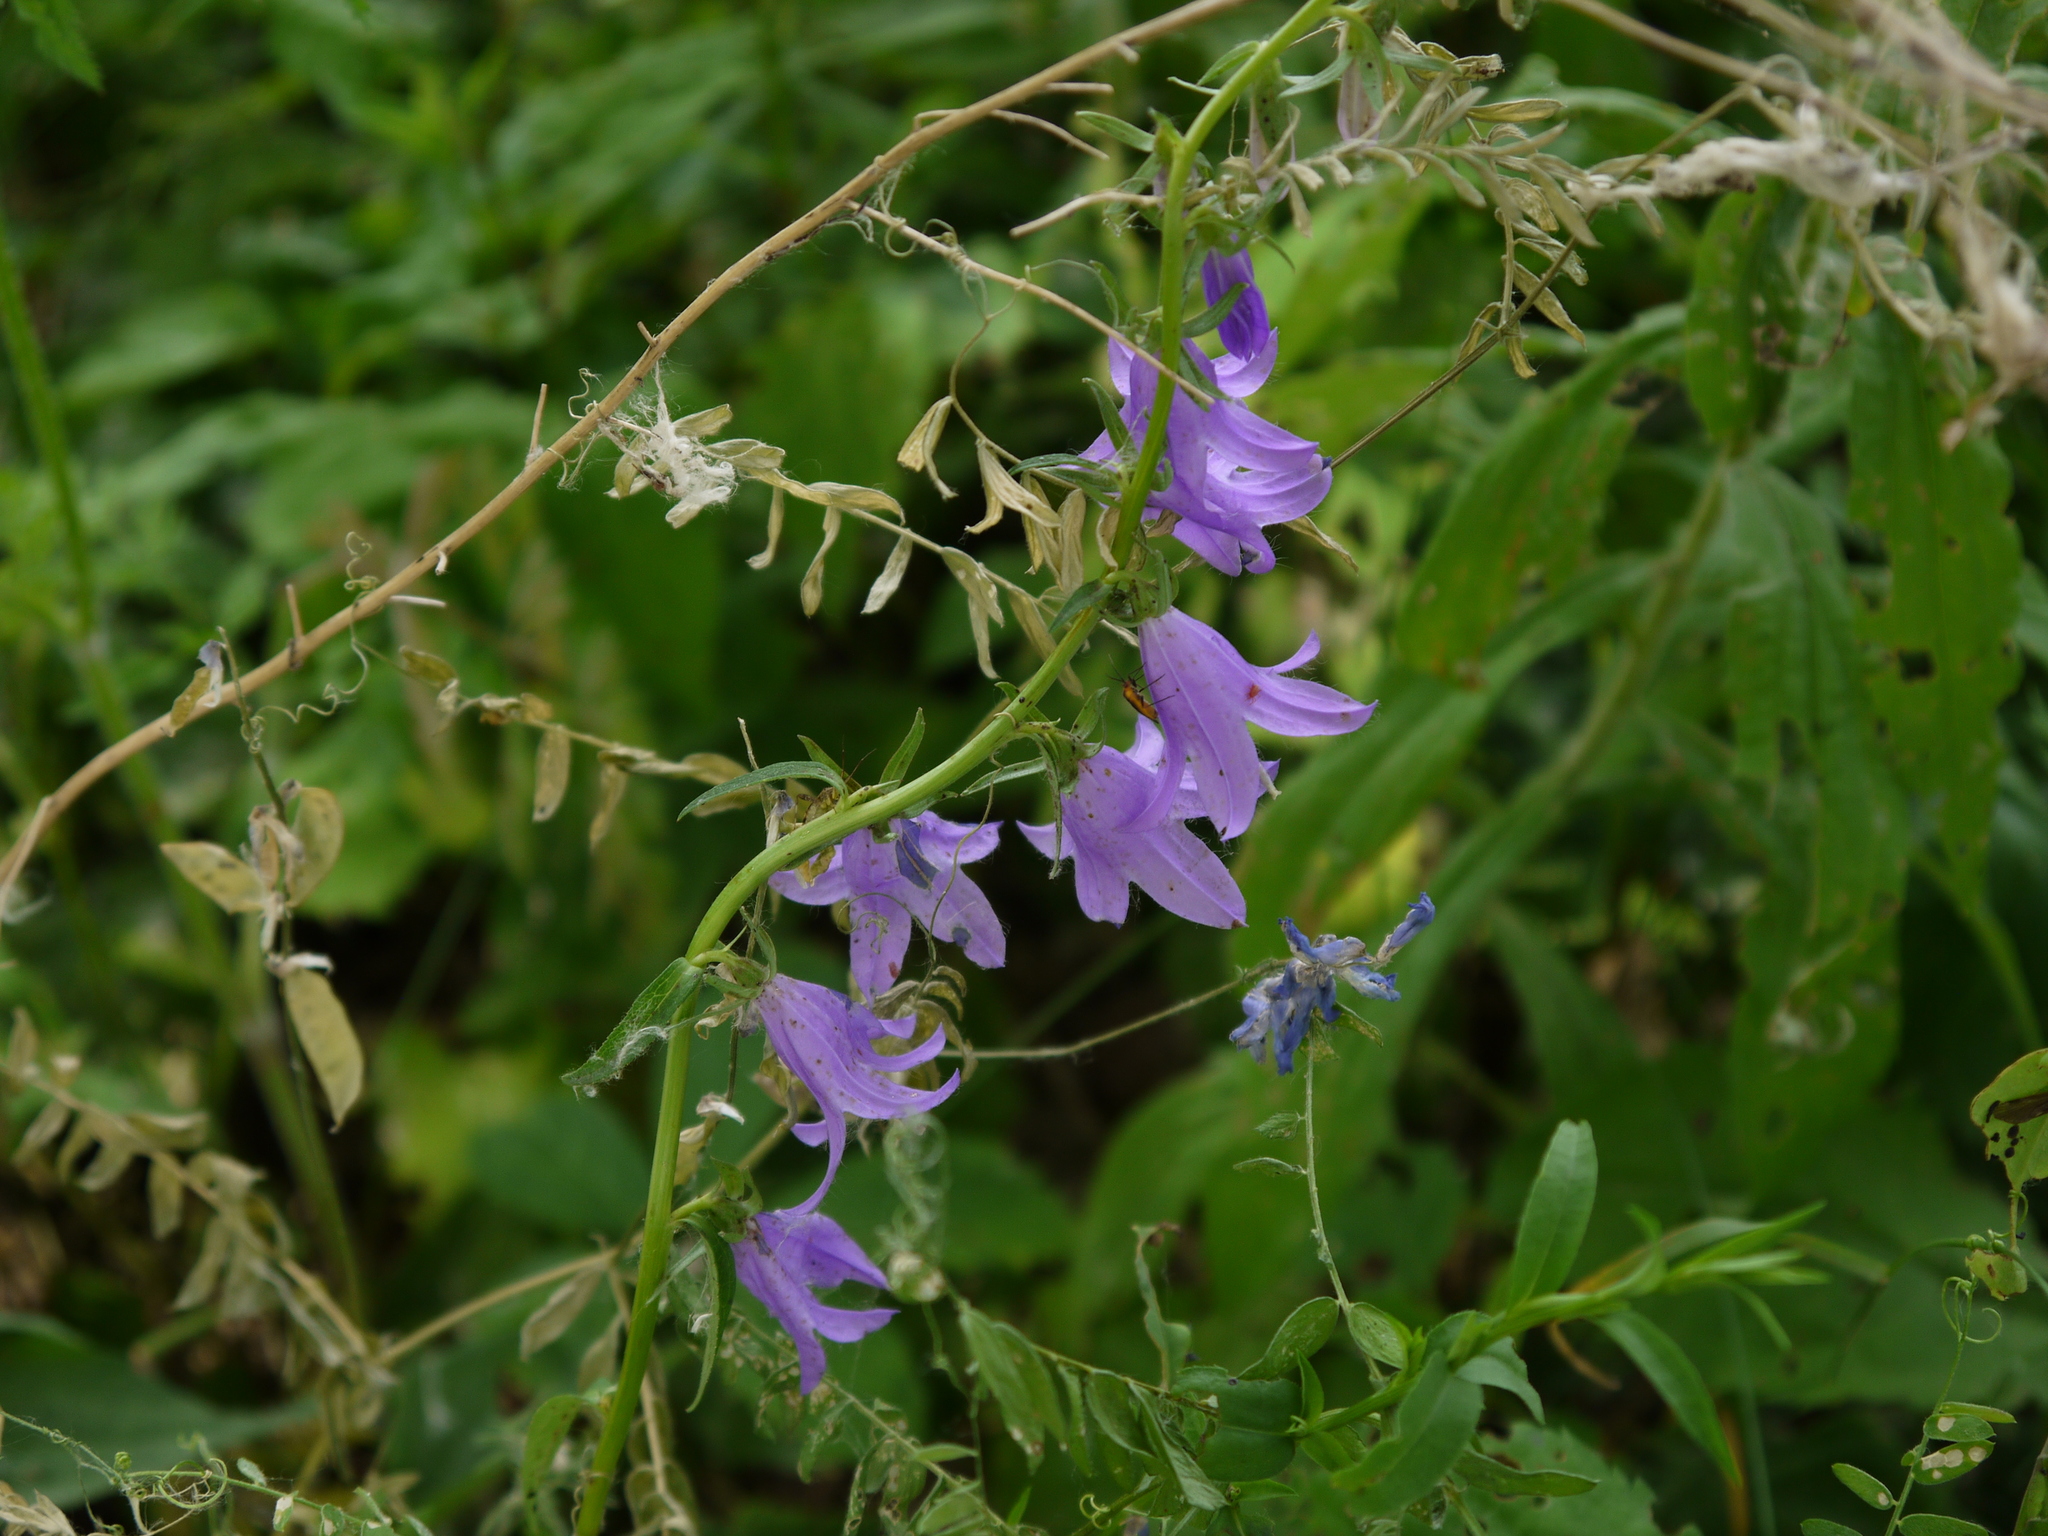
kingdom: Plantae
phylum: Tracheophyta
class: Magnoliopsida
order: Asterales
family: Campanulaceae
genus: Campanula
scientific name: Campanula rapunculoides
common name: Creeping bellflower
